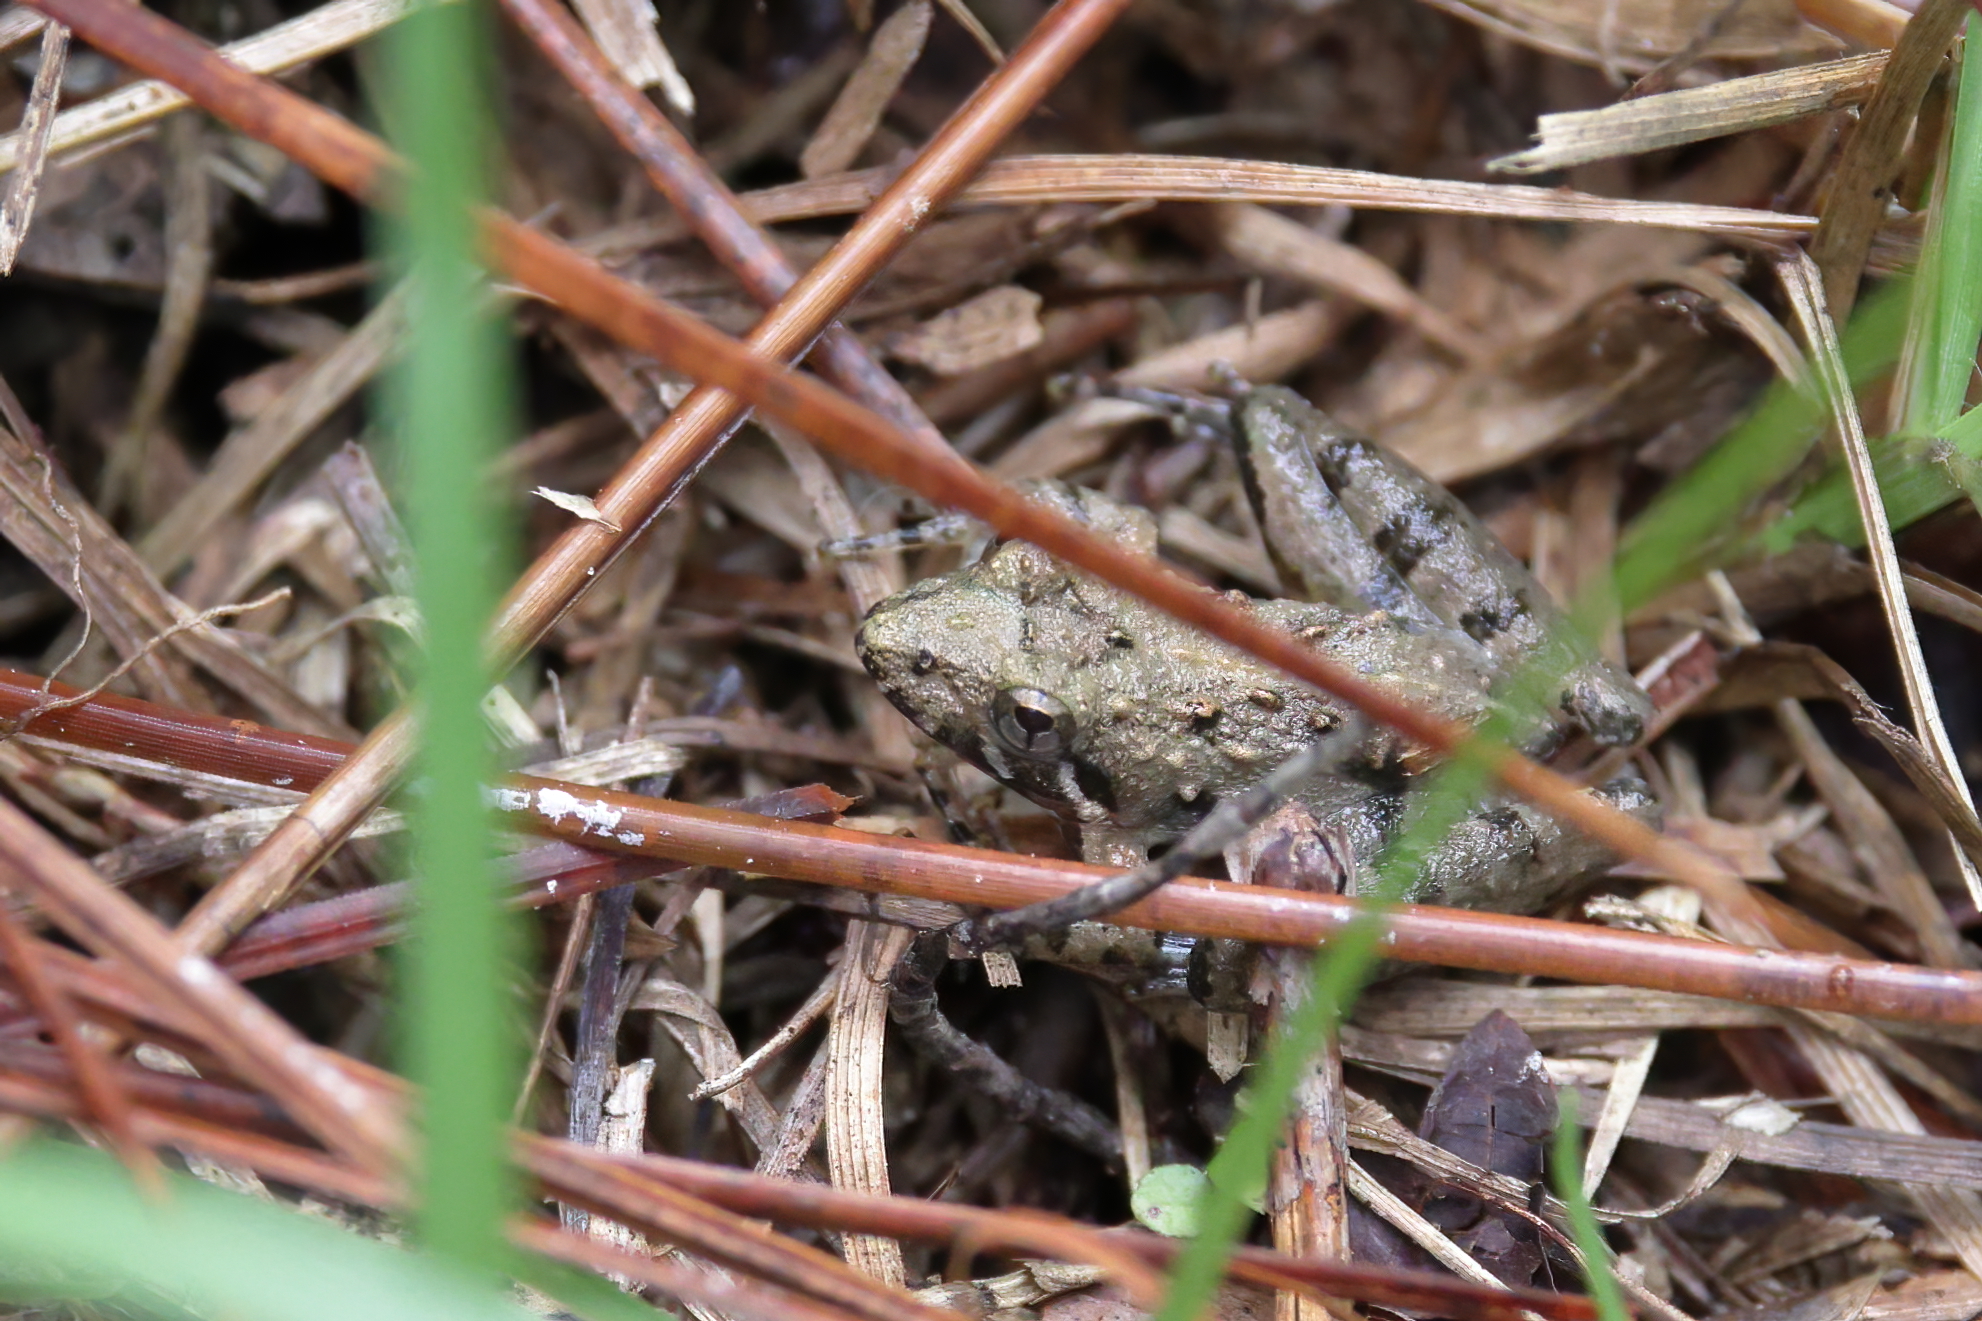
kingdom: Animalia
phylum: Chordata
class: Amphibia
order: Anura
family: Hylidae
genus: Acris
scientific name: Acris gryllus
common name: Southern cricket frog
